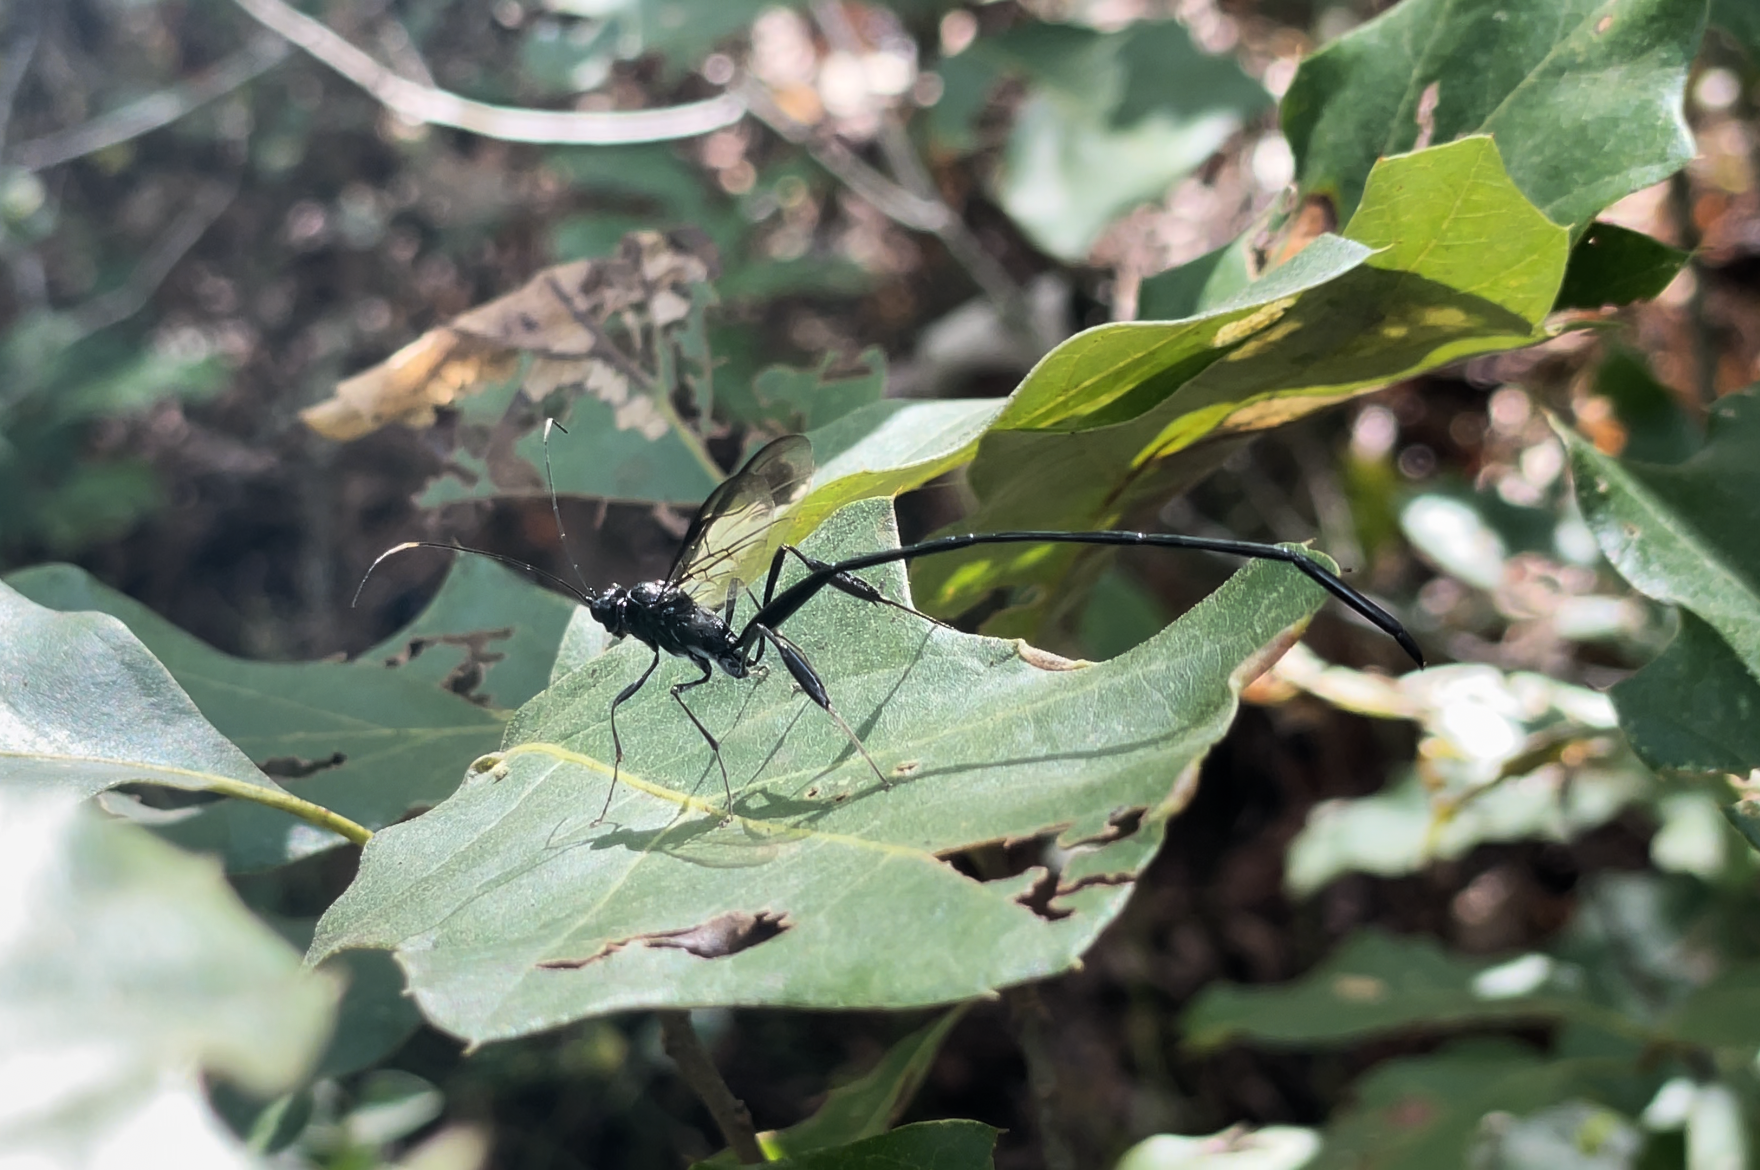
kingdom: Animalia
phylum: Arthropoda
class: Insecta
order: Hymenoptera
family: Pelecinidae
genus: Pelecinus
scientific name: Pelecinus polyturator
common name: American pelecinid wasp
